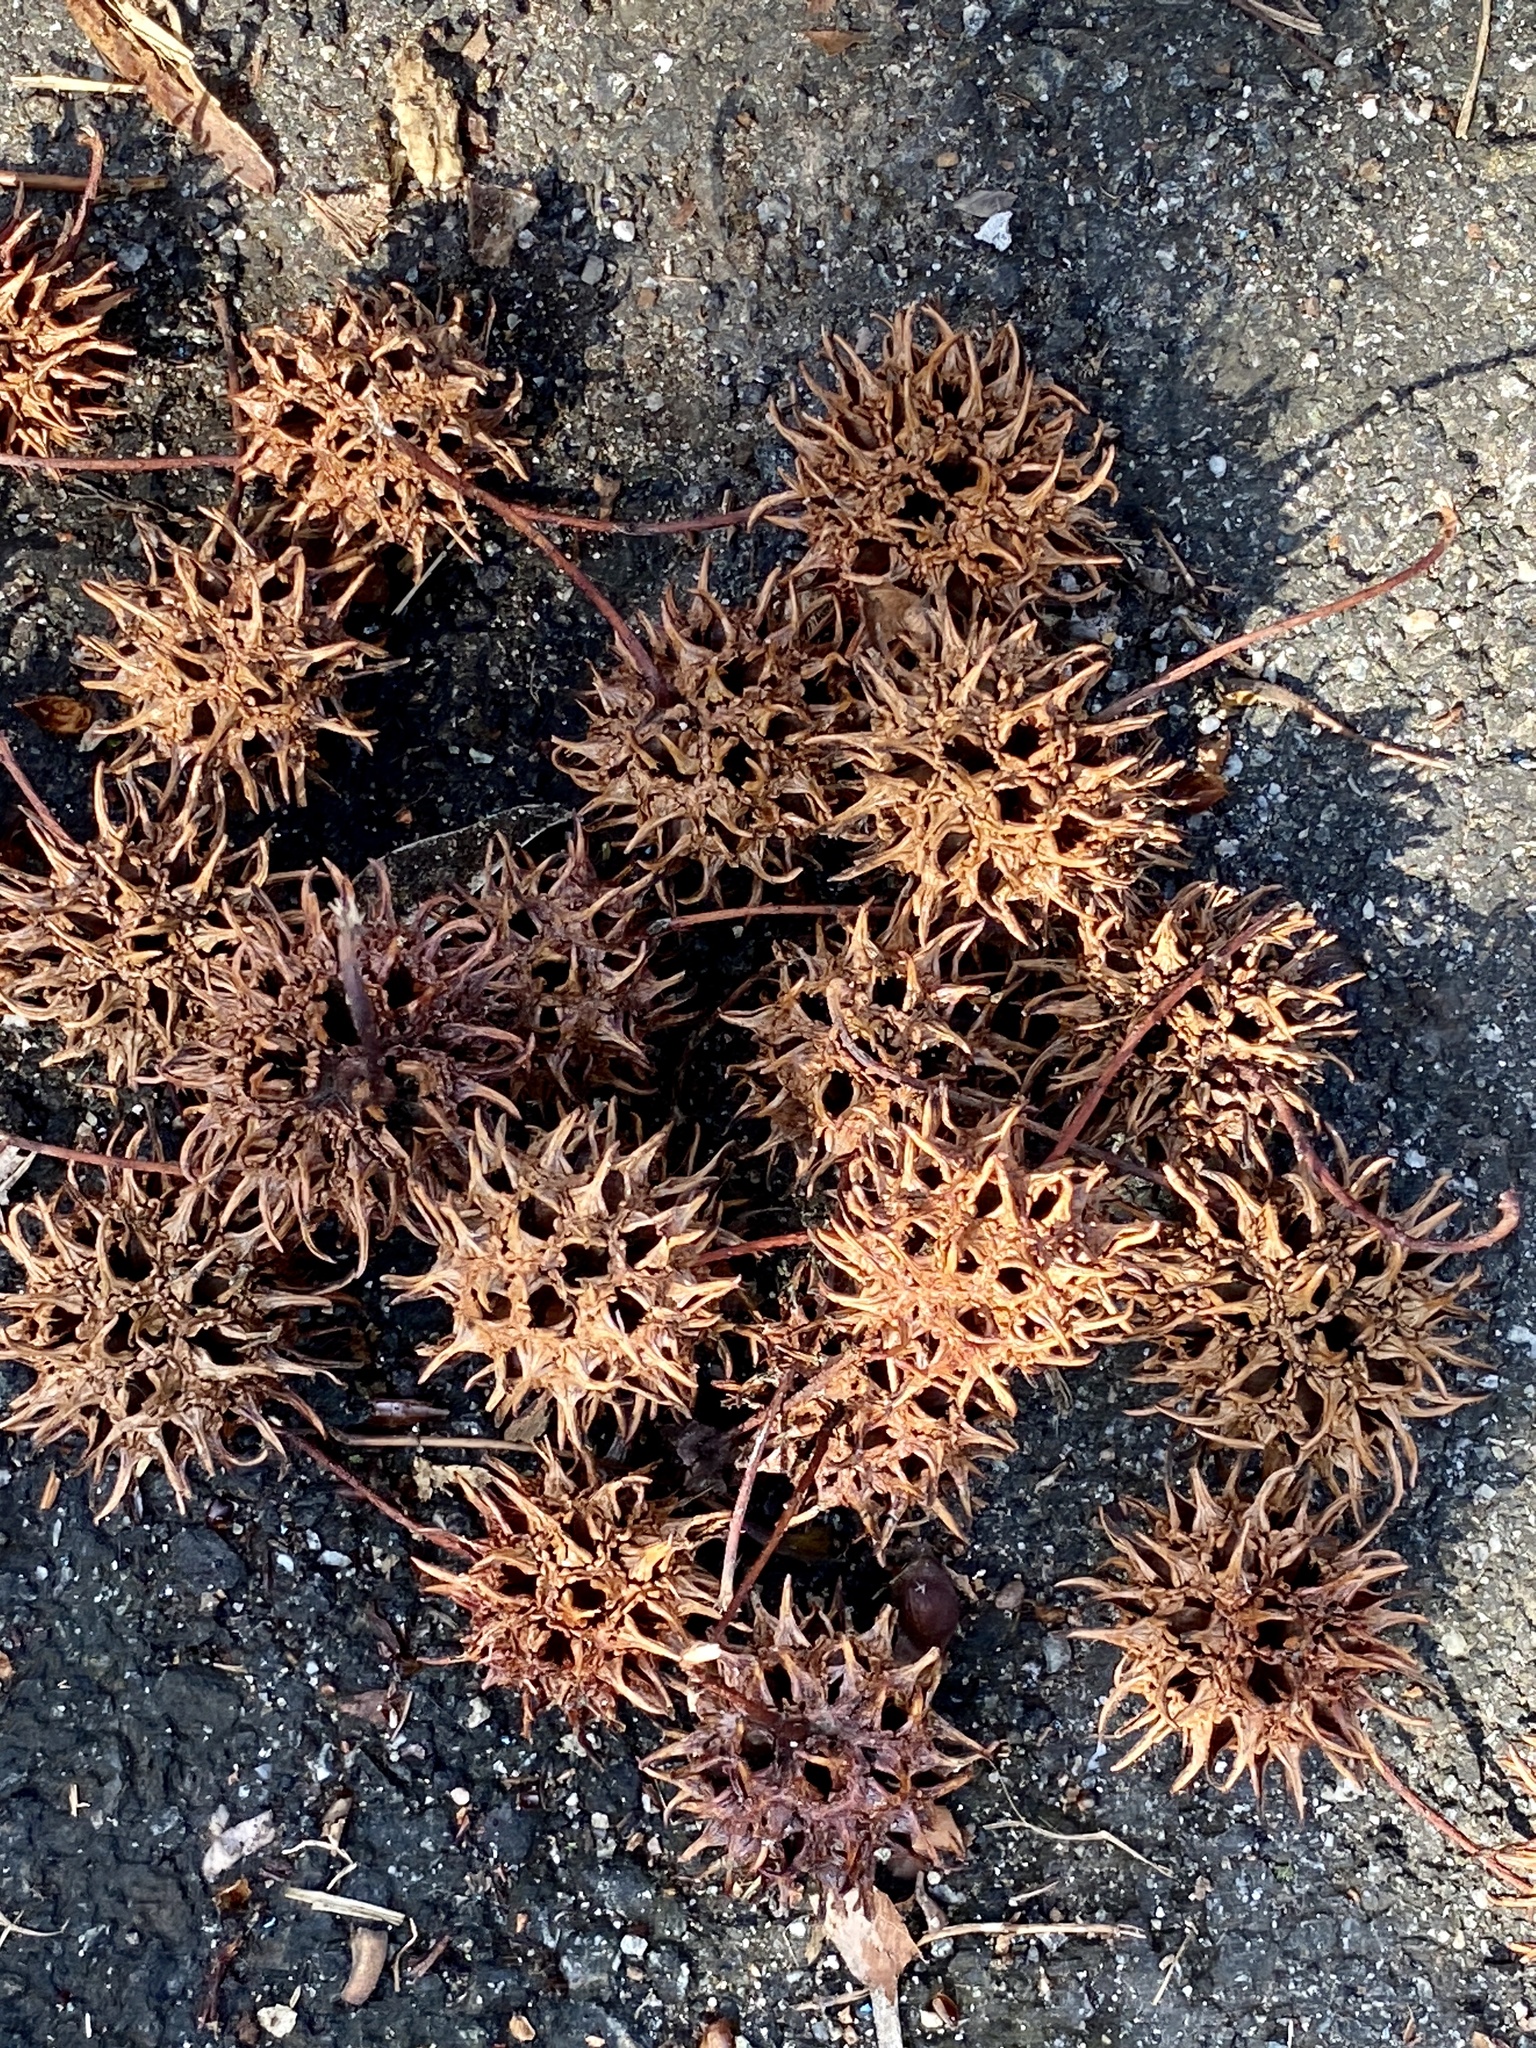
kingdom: Plantae
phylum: Tracheophyta
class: Magnoliopsida
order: Saxifragales
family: Altingiaceae
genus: Liquidambar
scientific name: Liquidambar styraciflua
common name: Sweet gum
